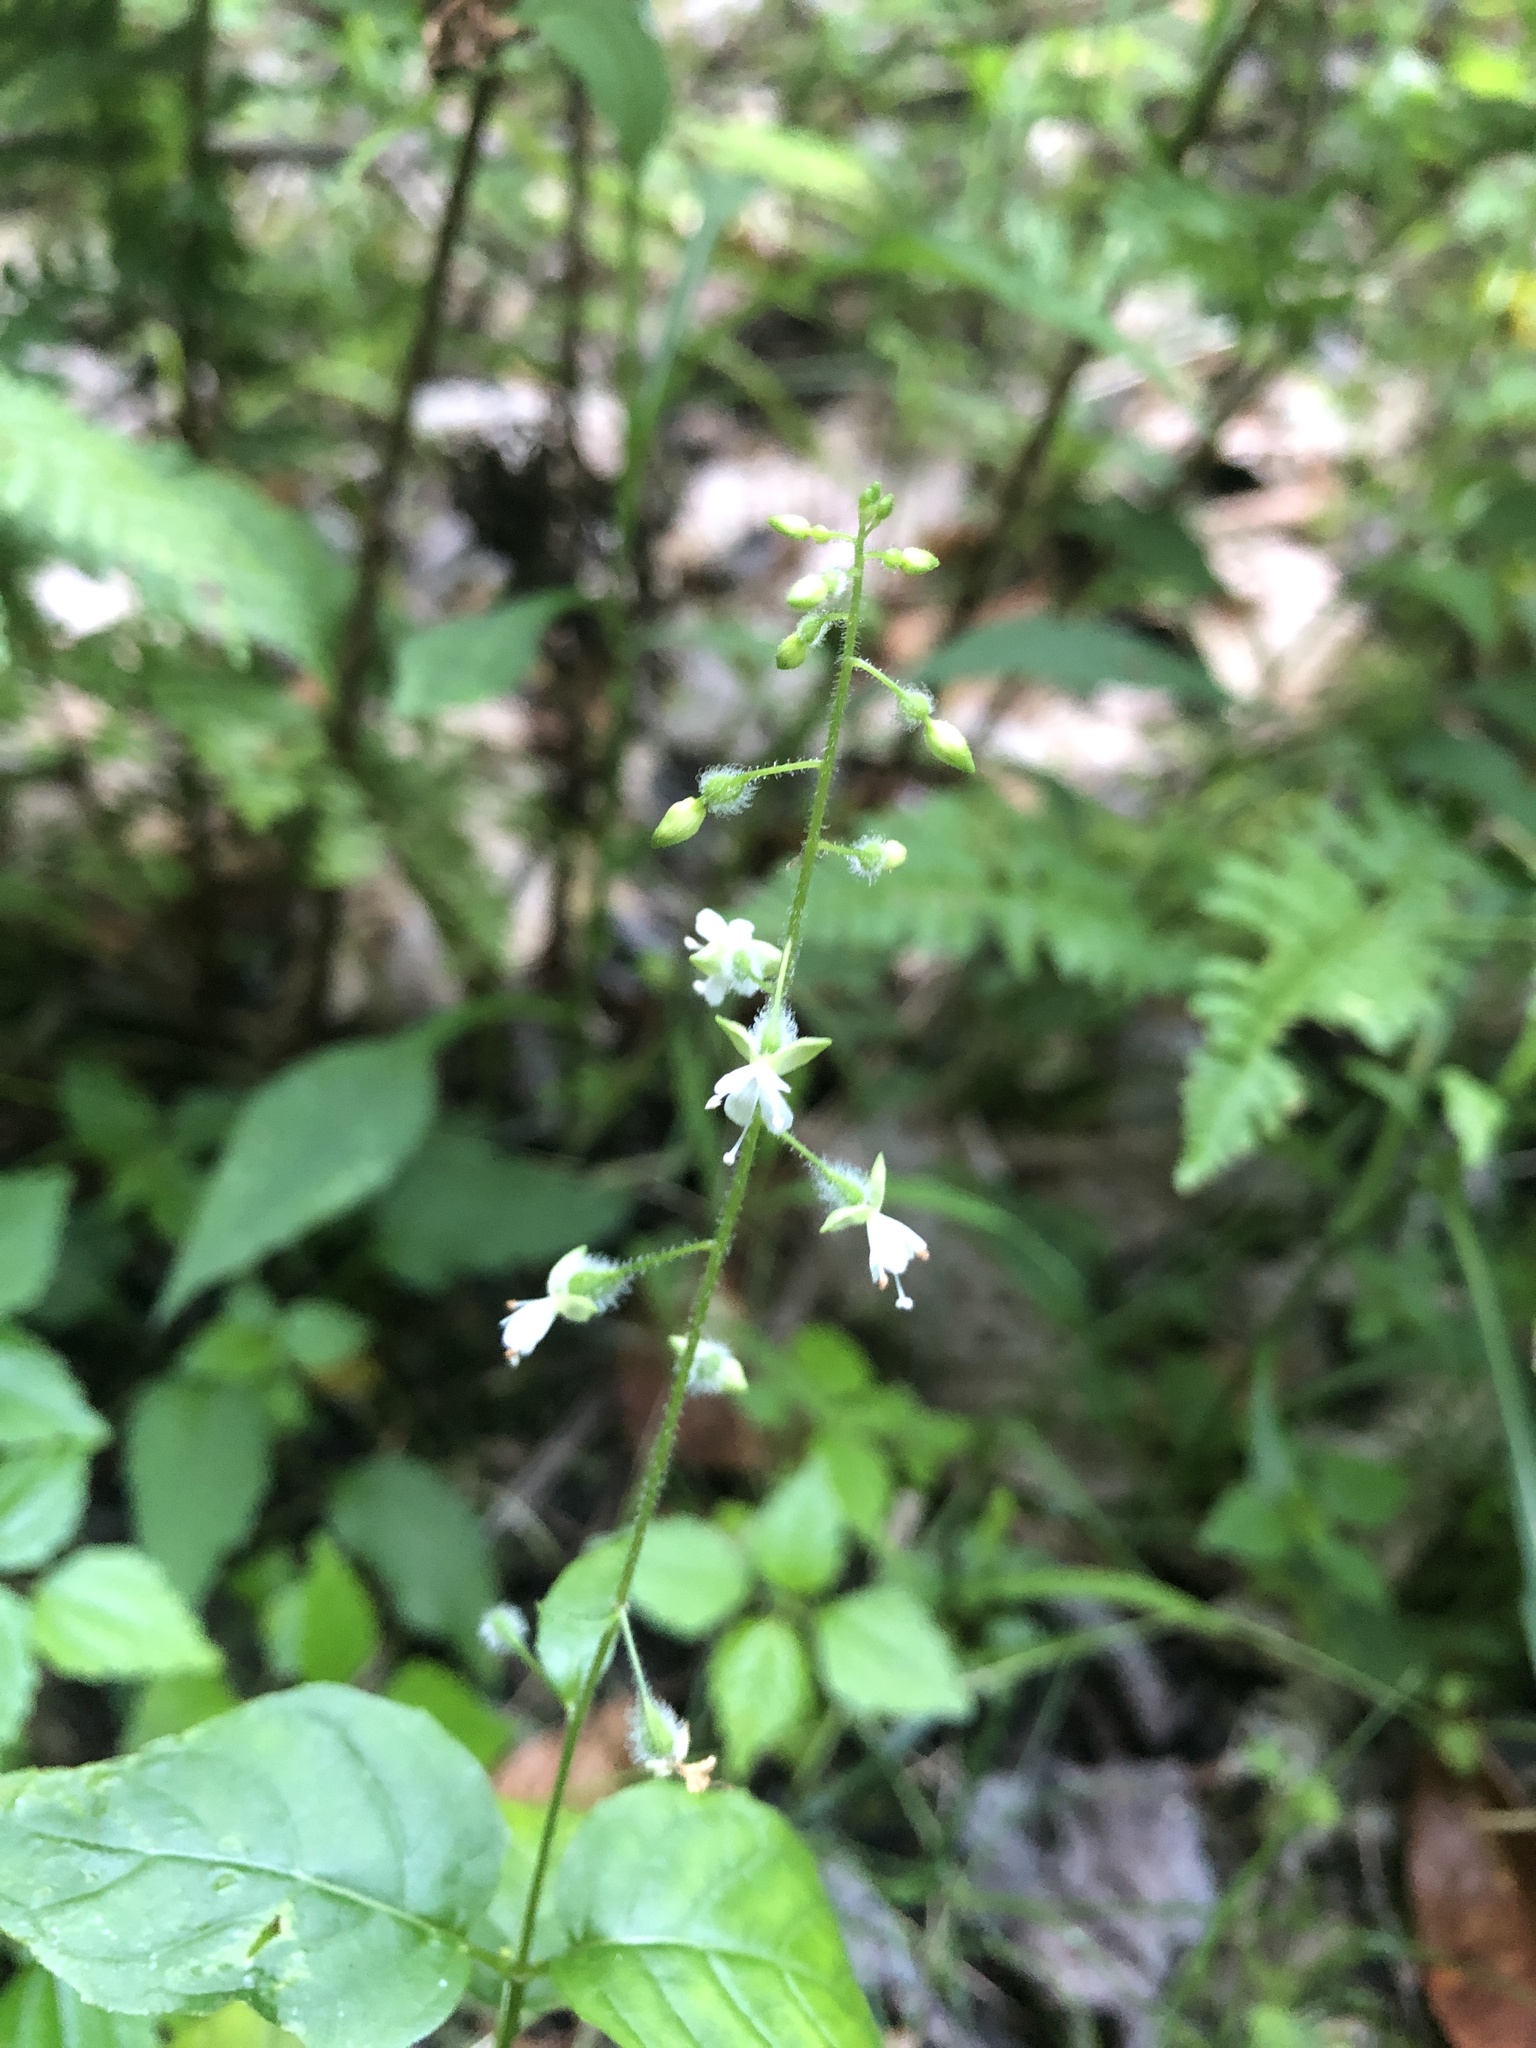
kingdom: Plantae
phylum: Tracheophyta
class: Magnoliopsida
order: Myrtales
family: Onagraceae
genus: Circaea
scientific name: Circaea canadensis
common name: Broad-leaved enchanter's nightshade
